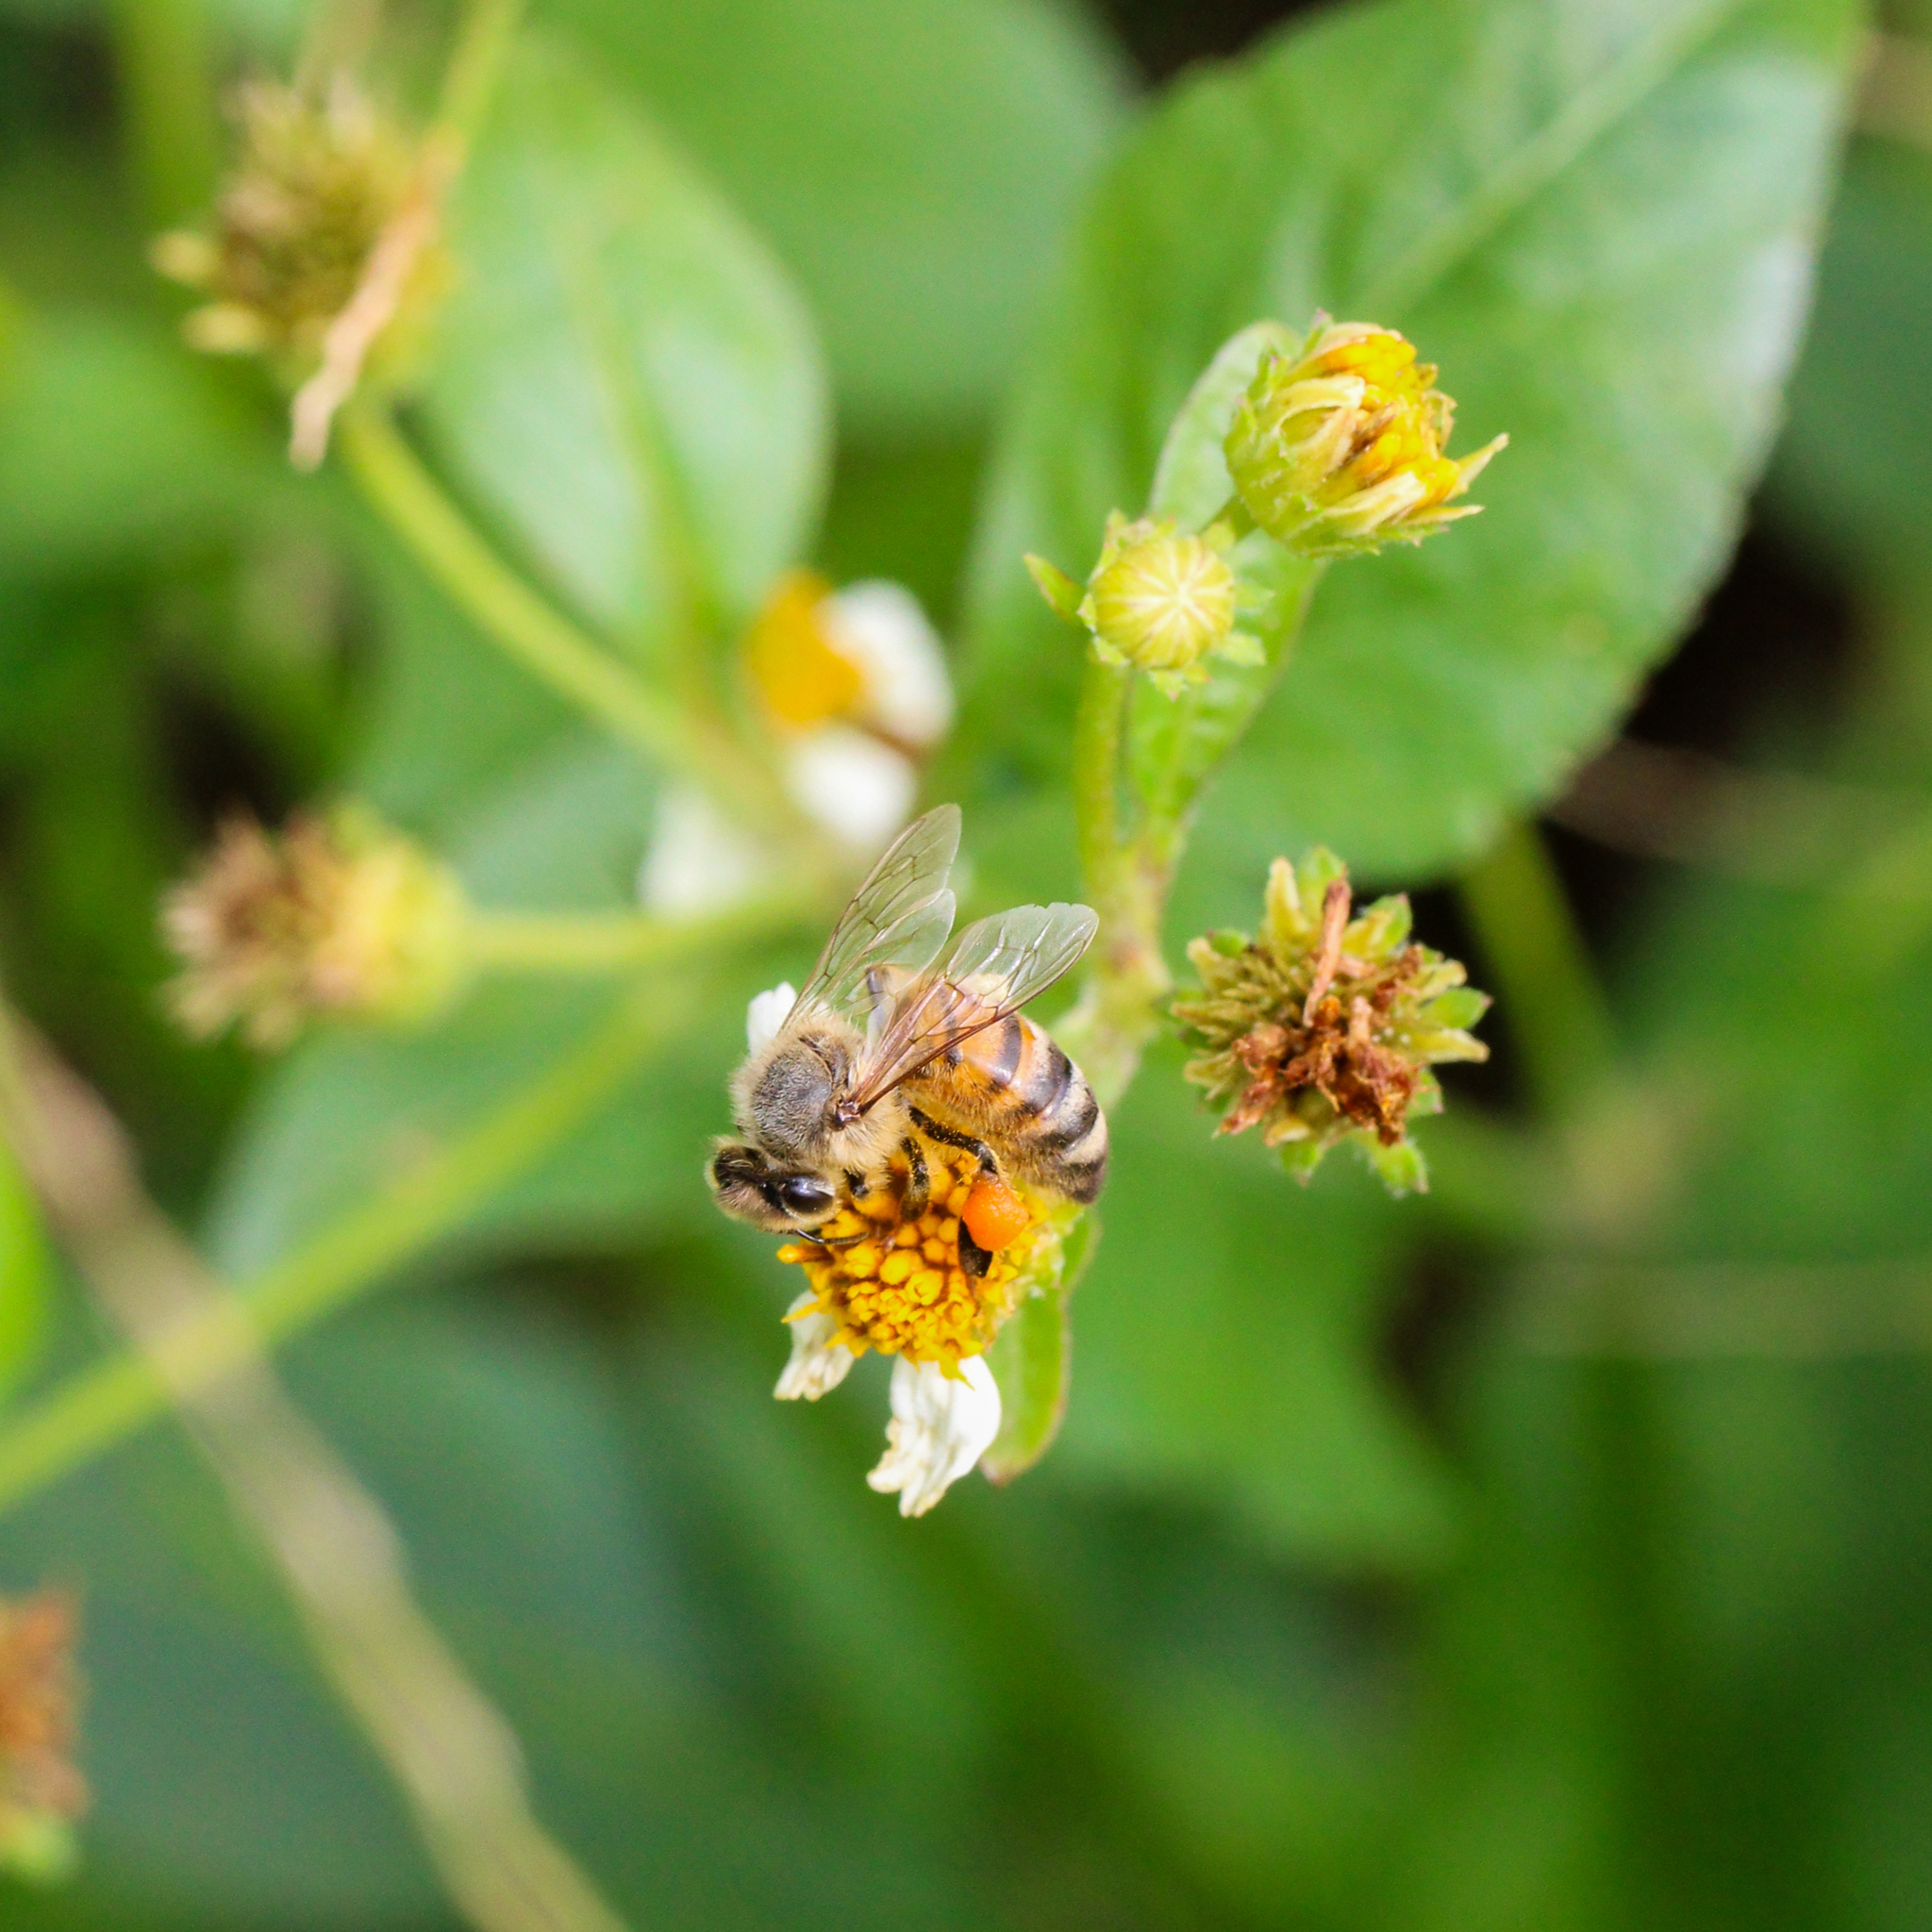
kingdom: Animalia
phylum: Arthropoda
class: Insecta
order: Hymenoptera
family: Apidae
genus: Apis
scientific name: Apis mellifera
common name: Honey bee
